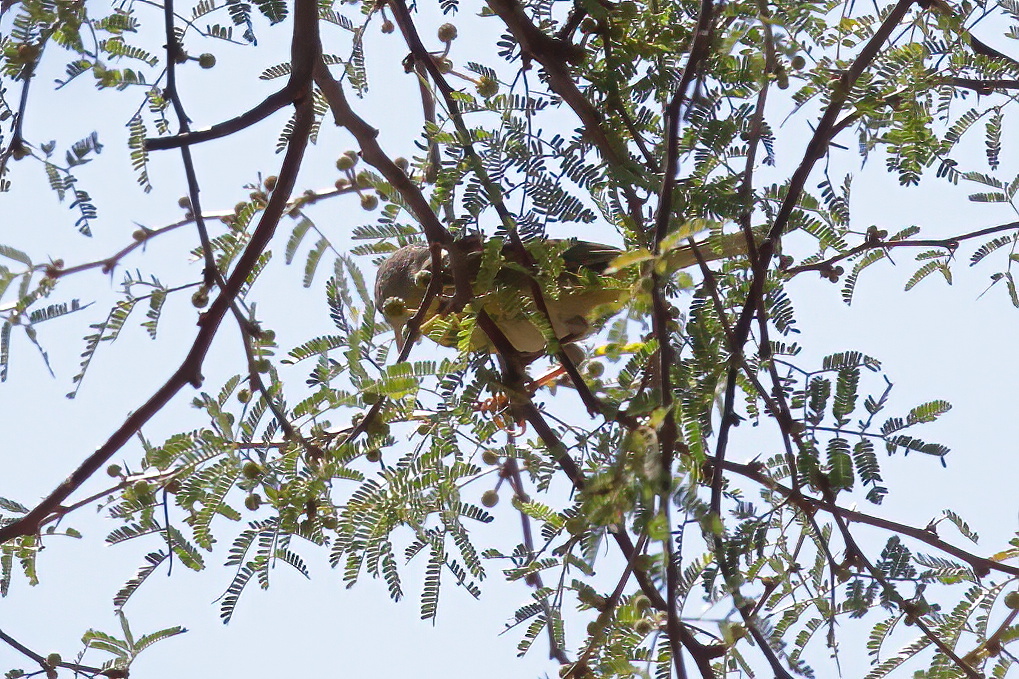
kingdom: Animalia
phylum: Chordata
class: Aves
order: Passeriformes
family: Parulidae
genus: Leiothlypis
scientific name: Leiothlypis ruficapilla
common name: Nashville warbler
